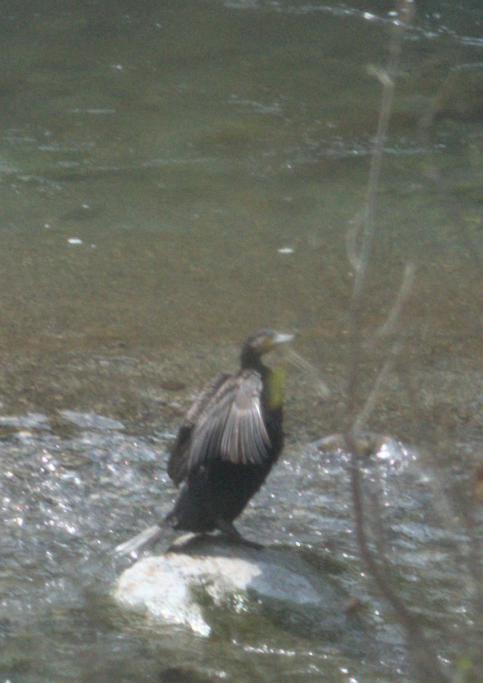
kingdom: Animalia
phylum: Chordata
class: Aves
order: Suliformes
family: Phalacrocoracidae
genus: Phalacrocorax
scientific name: Phalacrocorax carbo
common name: Great cormorant
